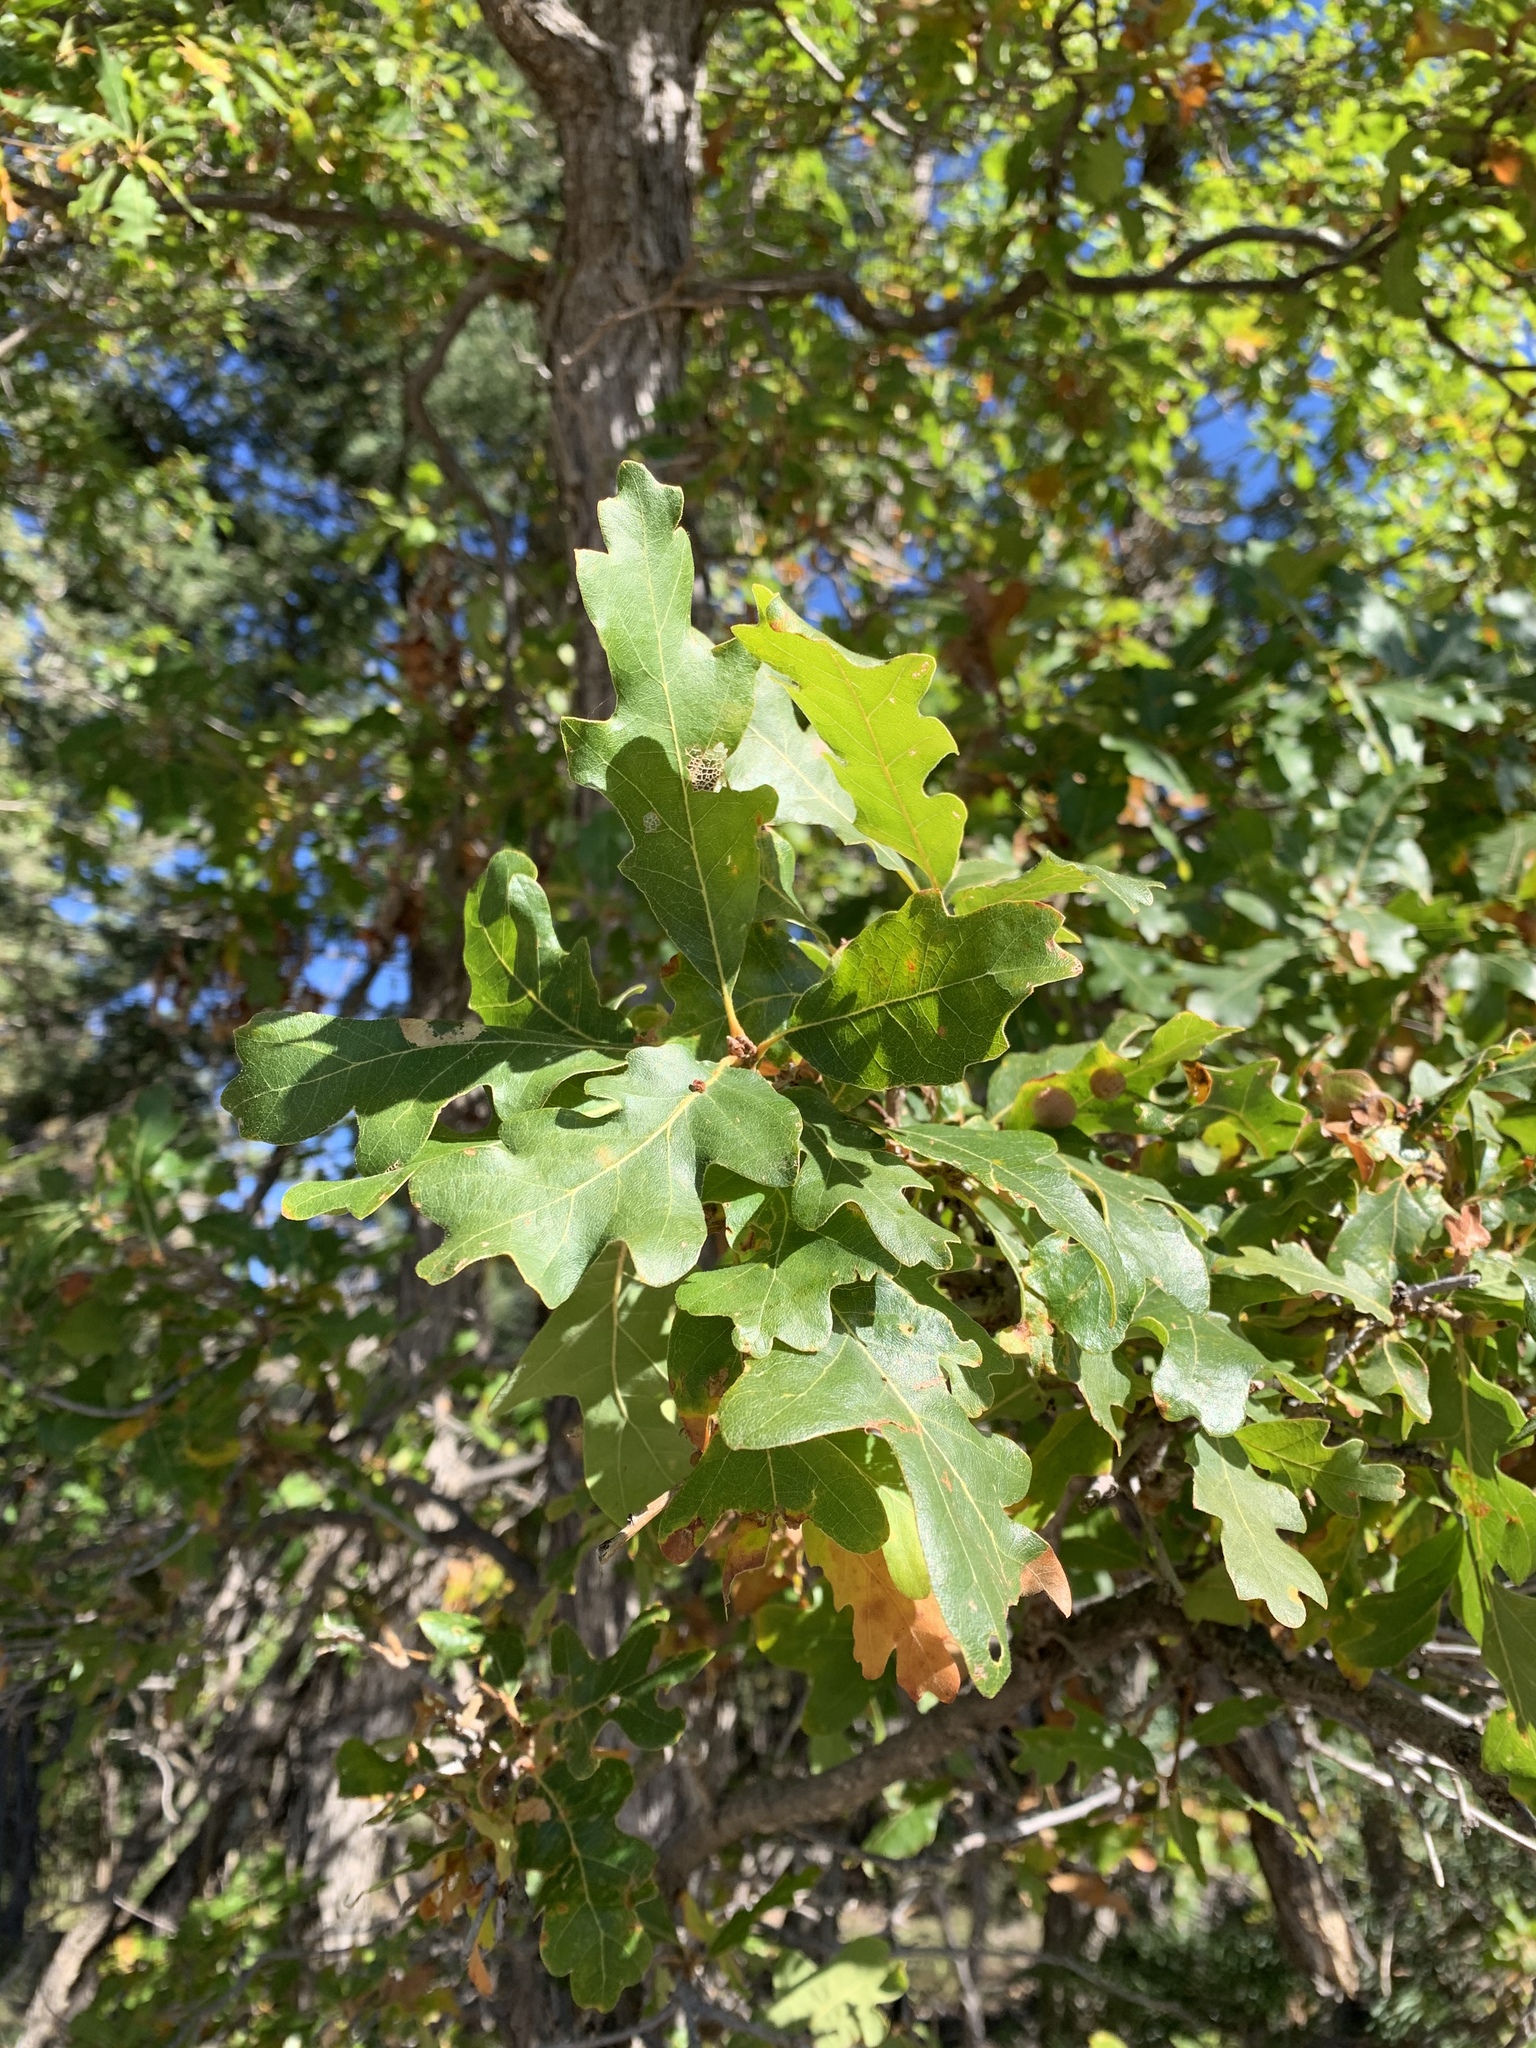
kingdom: Plantae
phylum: Tracheophyta
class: Magnoliopsida
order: Fagales
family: Fagaceae
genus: Quercus
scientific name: Quercus gambelii
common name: Gambel oak
